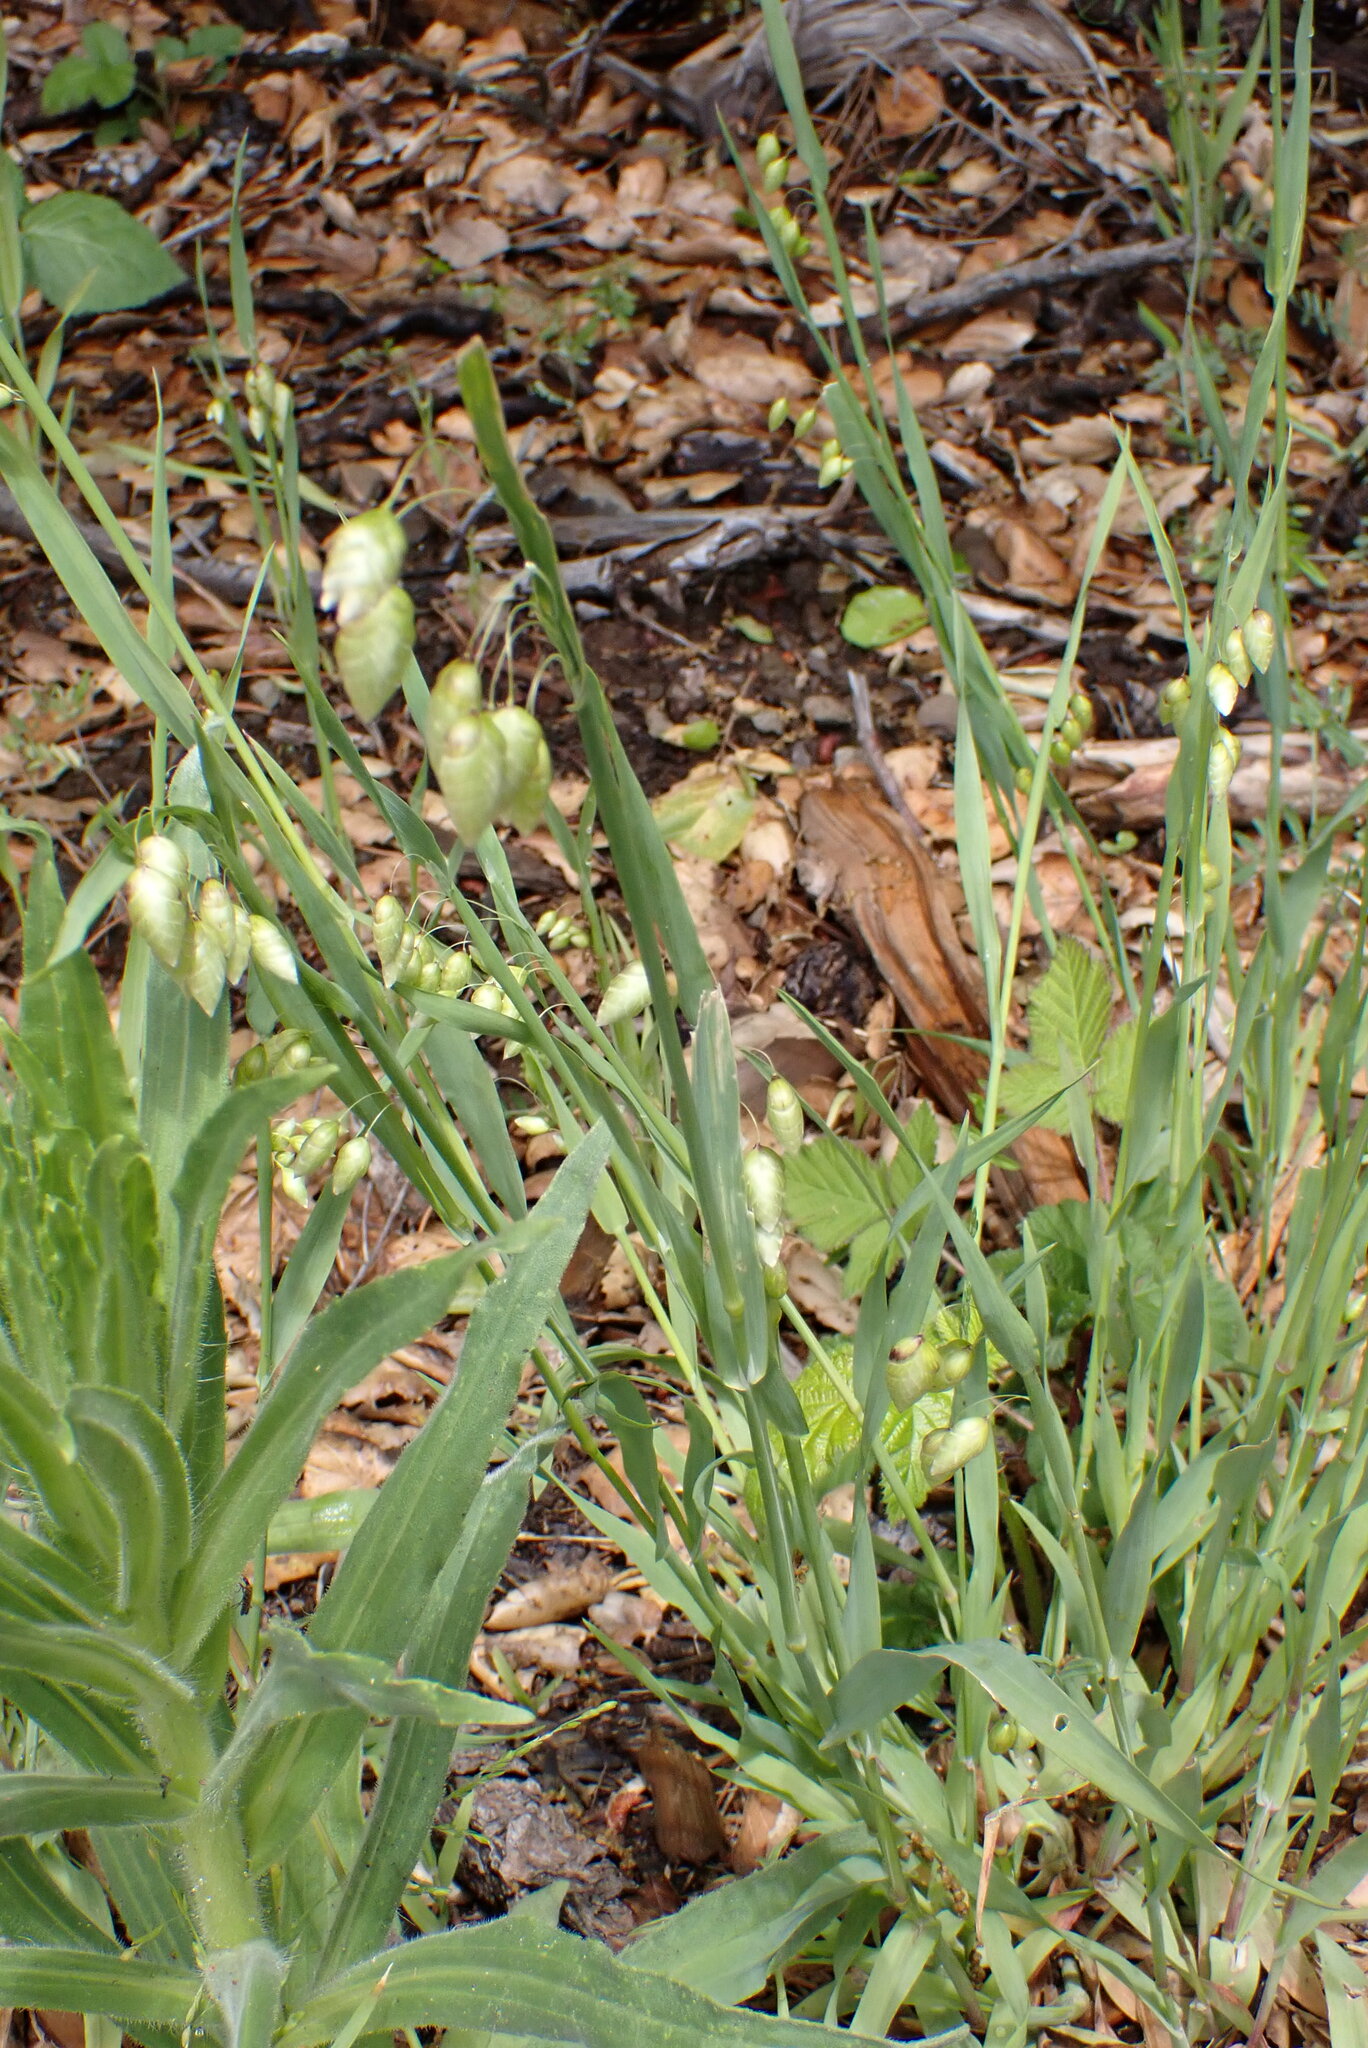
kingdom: Plantae
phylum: Tracheophyta
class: Liliopsida
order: Poales
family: Poaceae
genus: Briza
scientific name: Briza maxima
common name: Big quakinggrass
